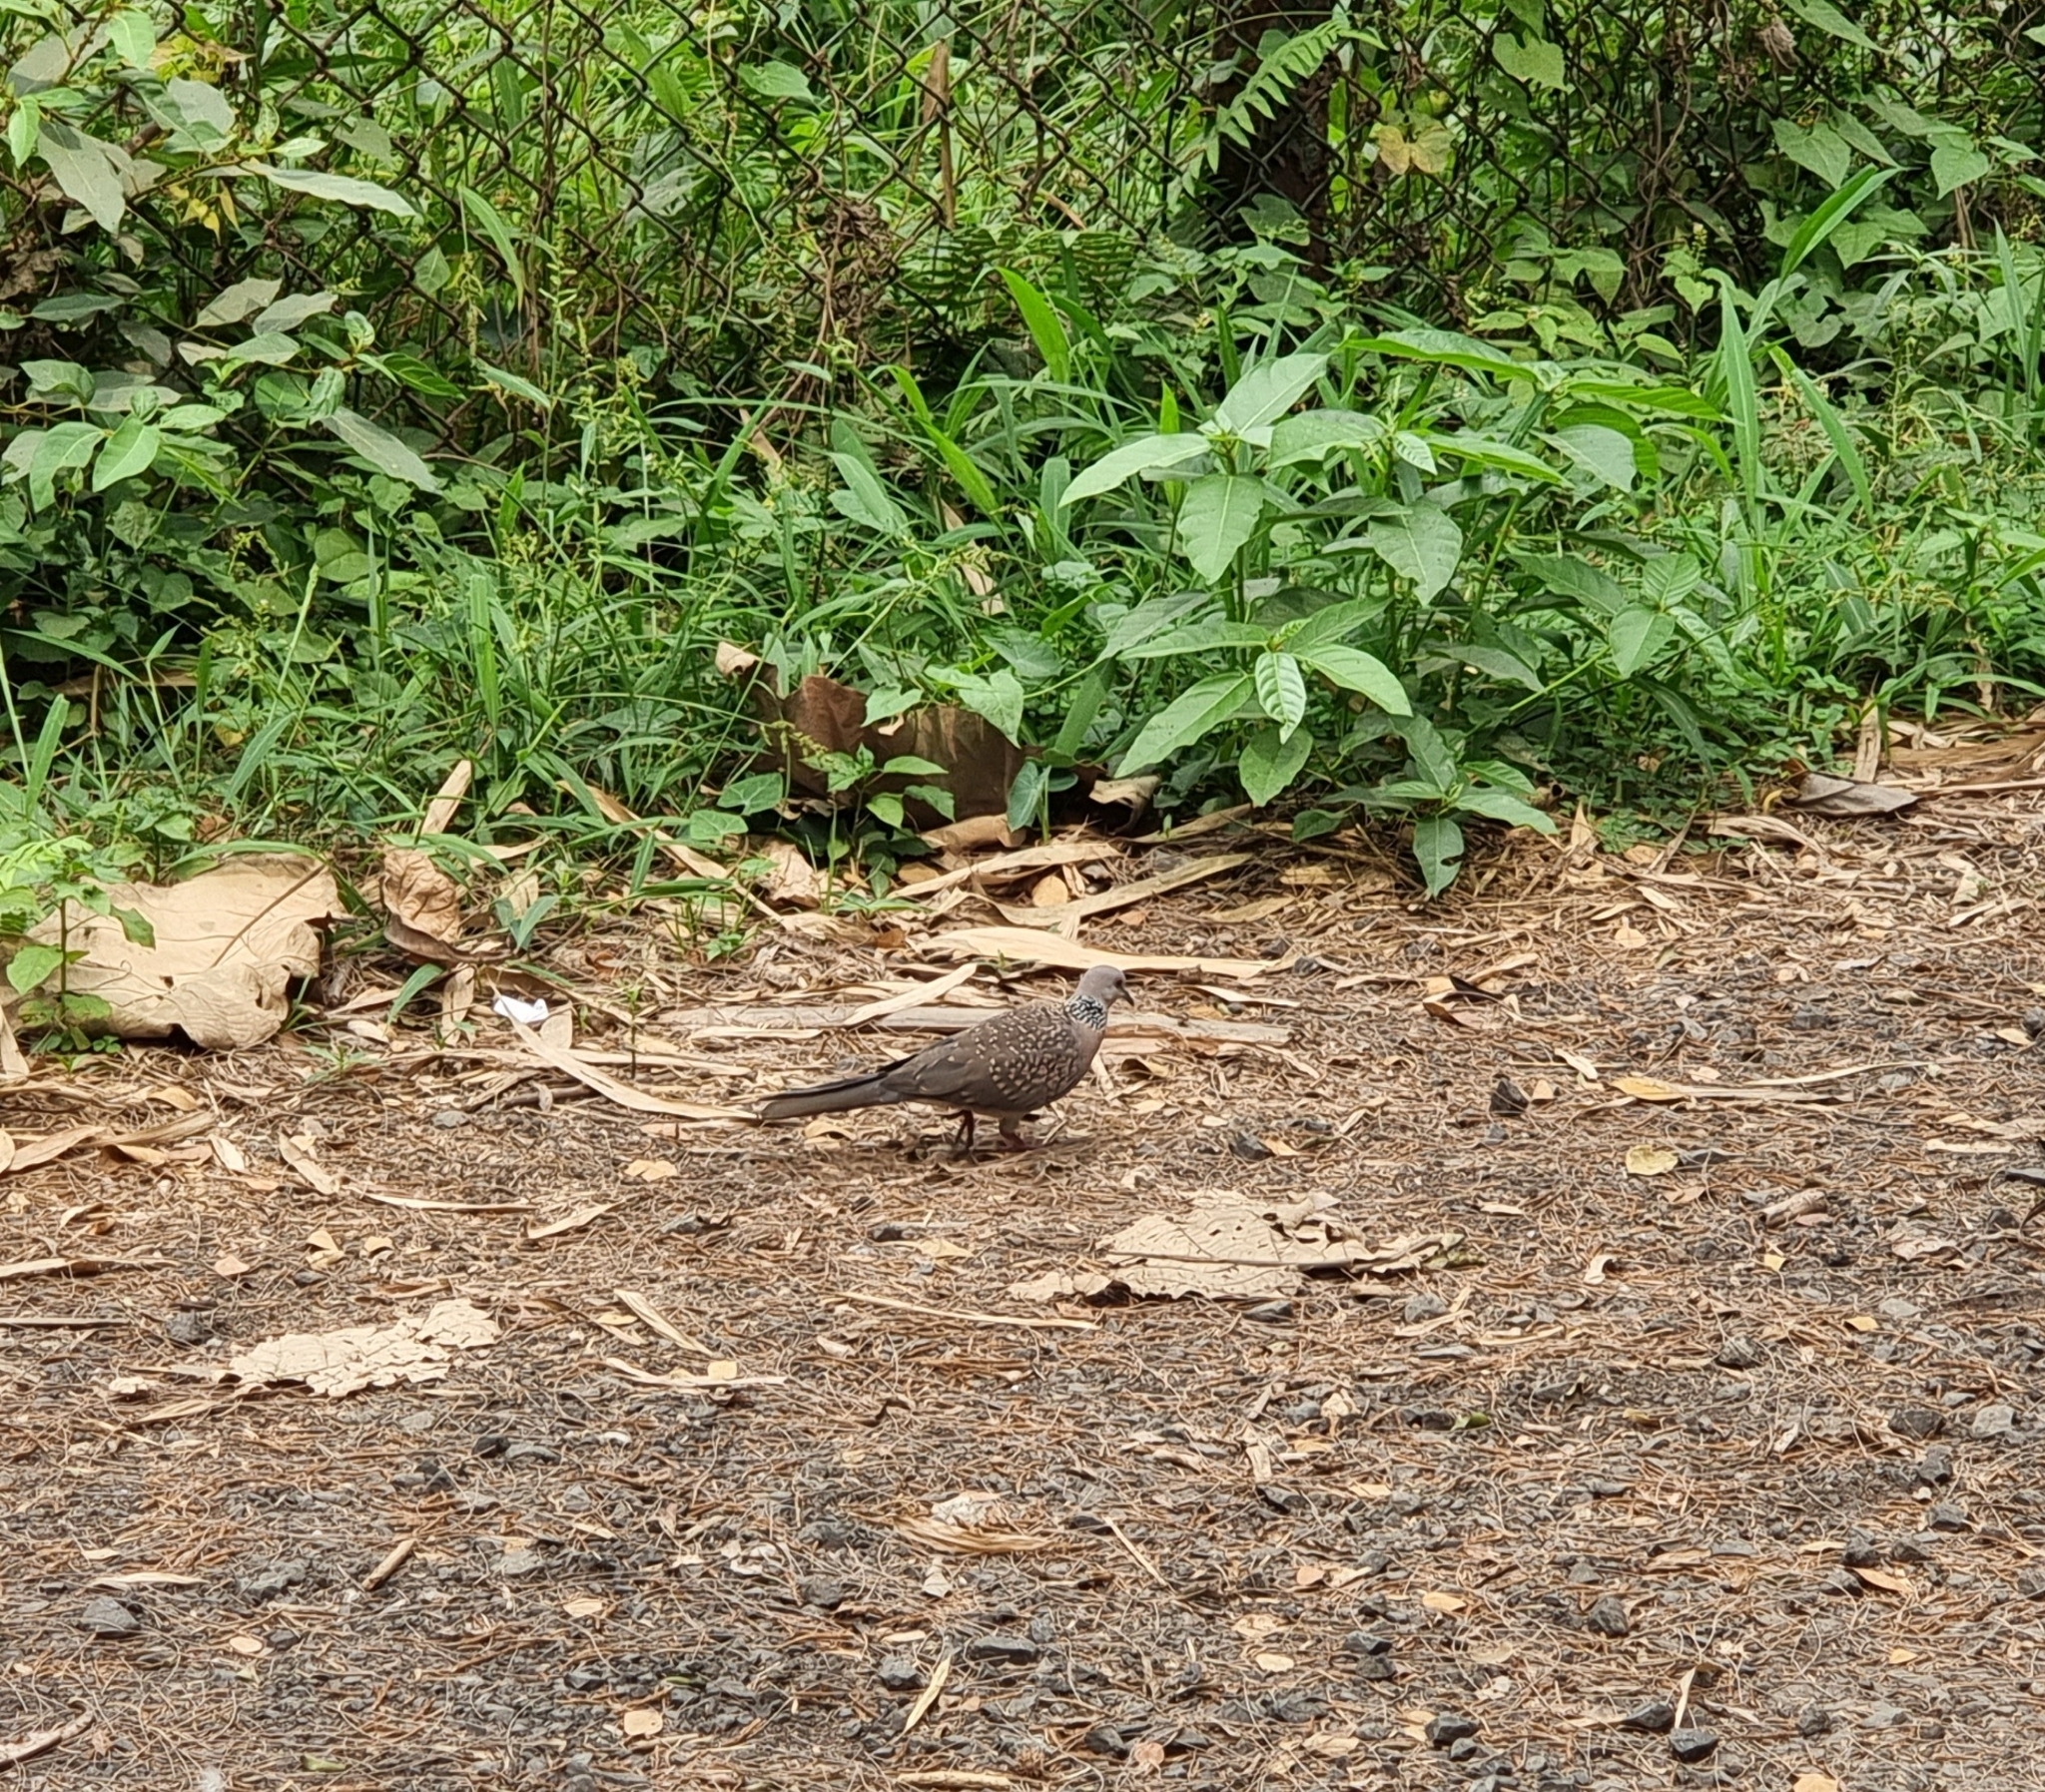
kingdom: Animalia
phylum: Chordata
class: Aves
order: Columbiformes
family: Columbidae
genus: Spilopelia
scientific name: Spilopelia chinensis
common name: Spotted dove
